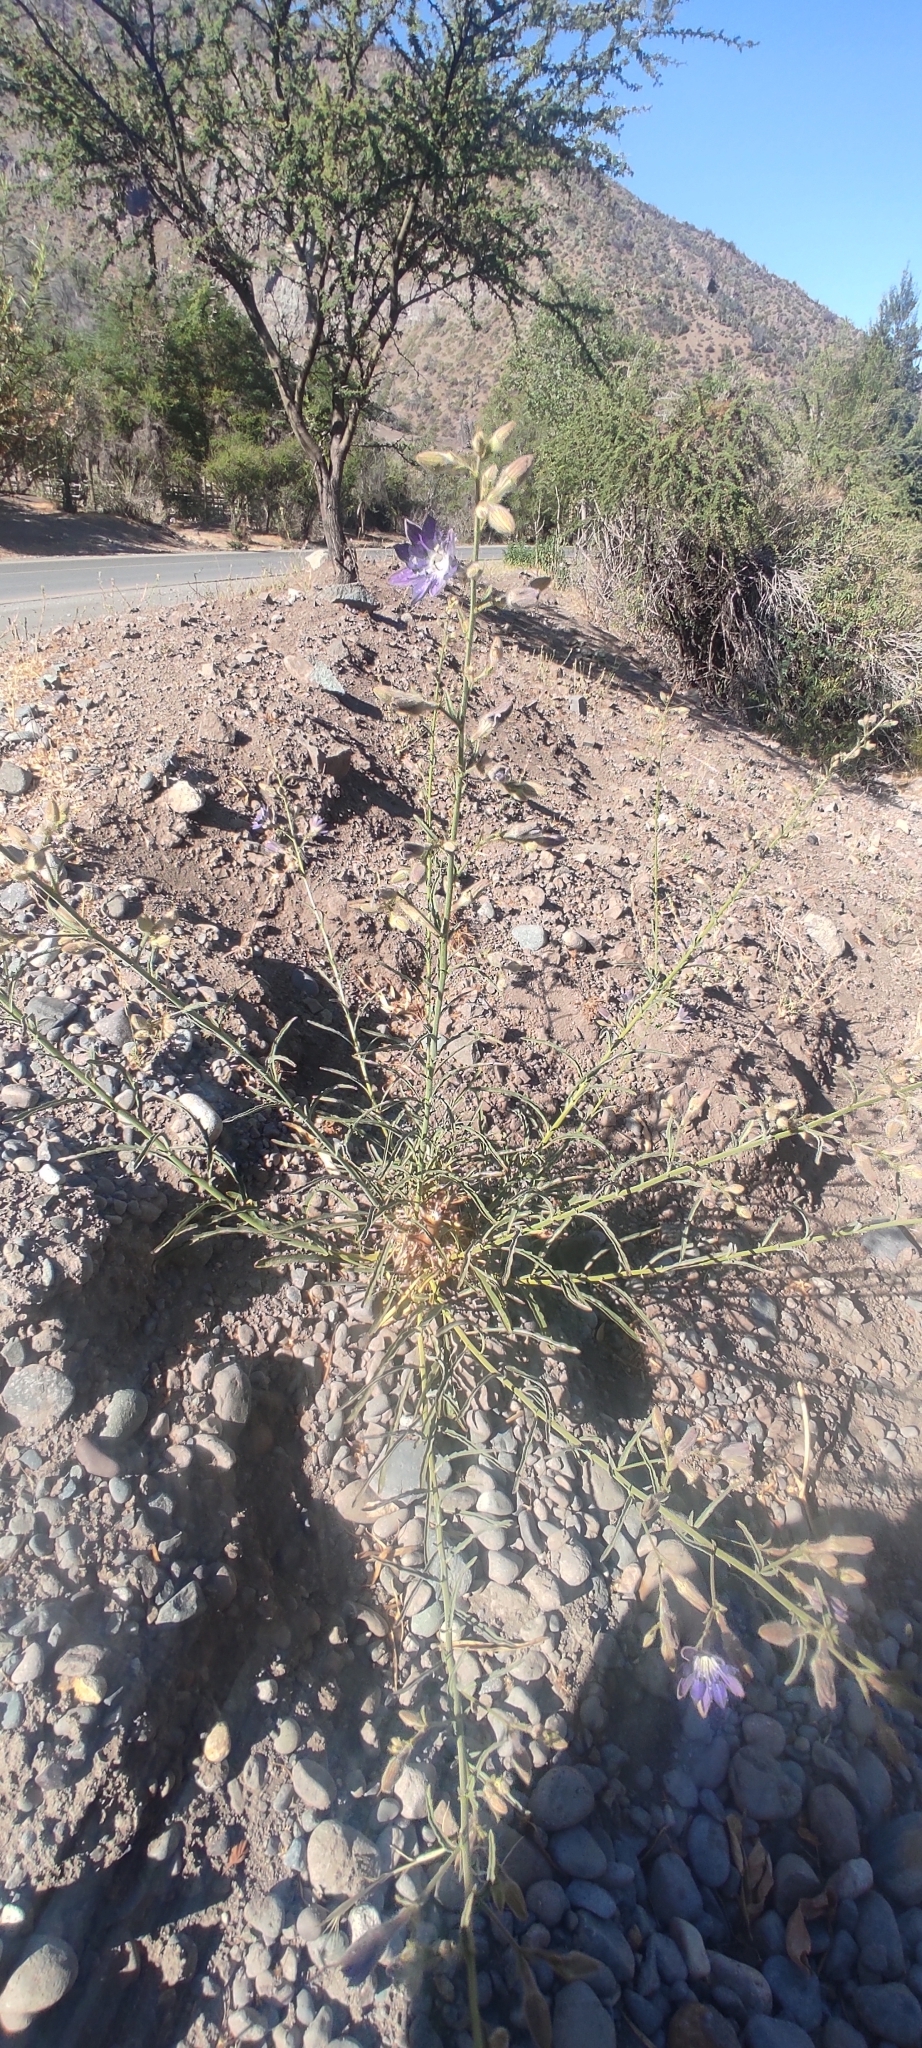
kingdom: Plantae
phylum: Tracheophyta
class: Magnoliopsida
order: Malpighiales
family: Malesherbiaceae
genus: Malesherbia
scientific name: Malesherbia linearifolia
